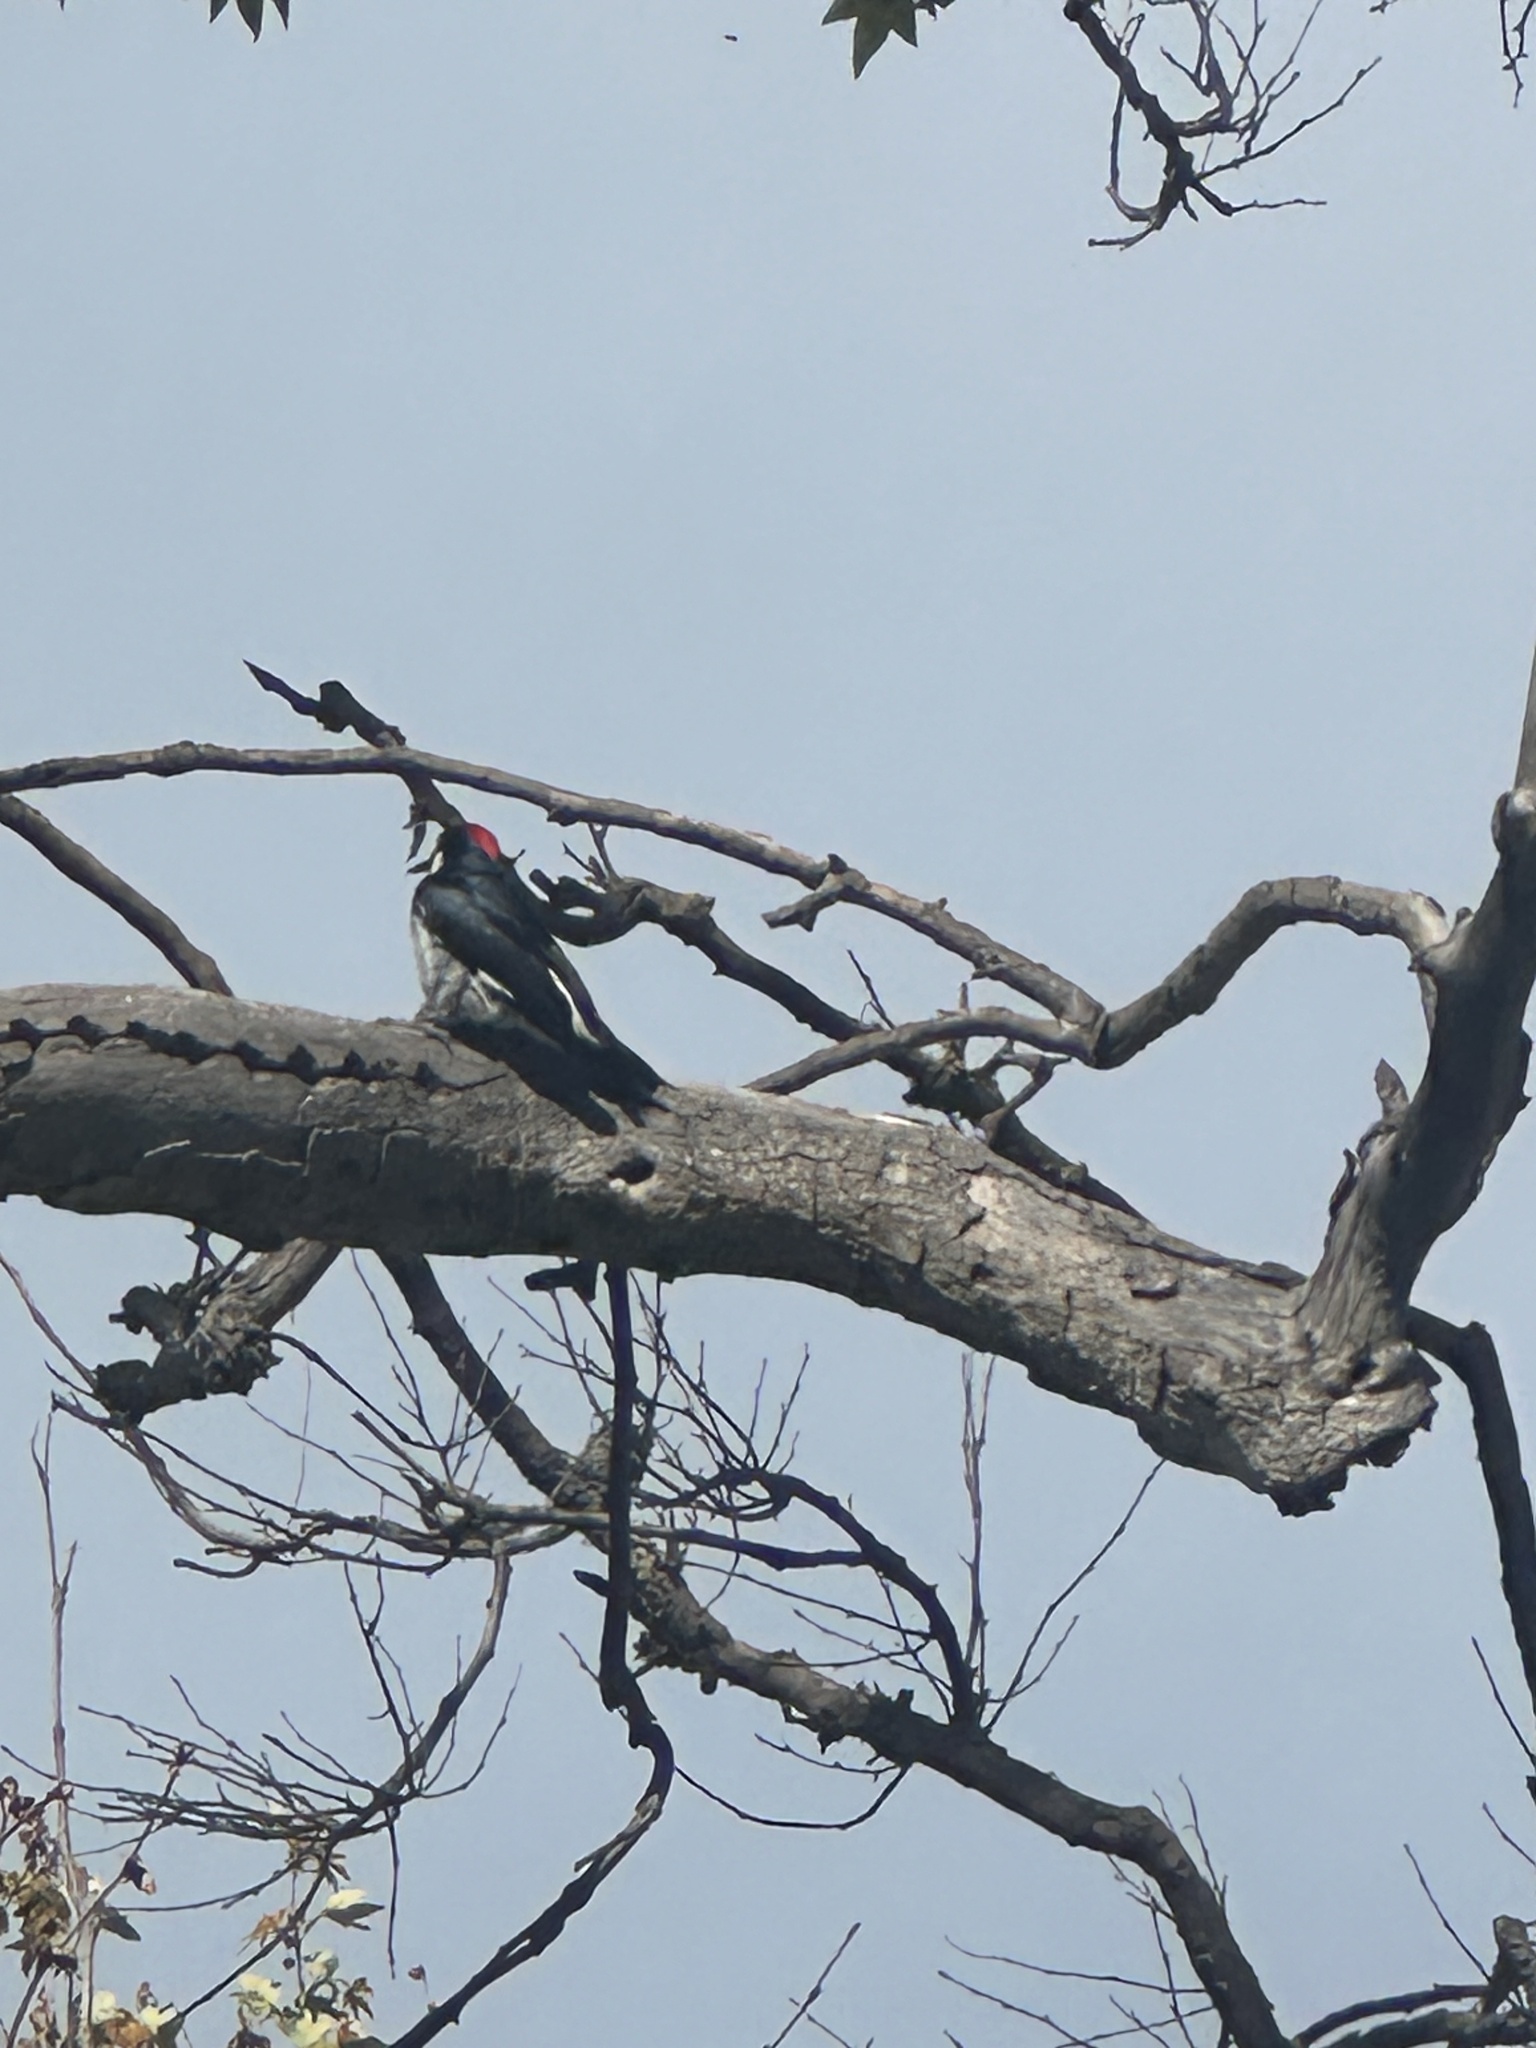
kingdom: Animalia
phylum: Chordata
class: Aves
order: Piciformes
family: Picidae
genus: Melanerpes
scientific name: Melanerpes formicivorus
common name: Acorn woodpecker
